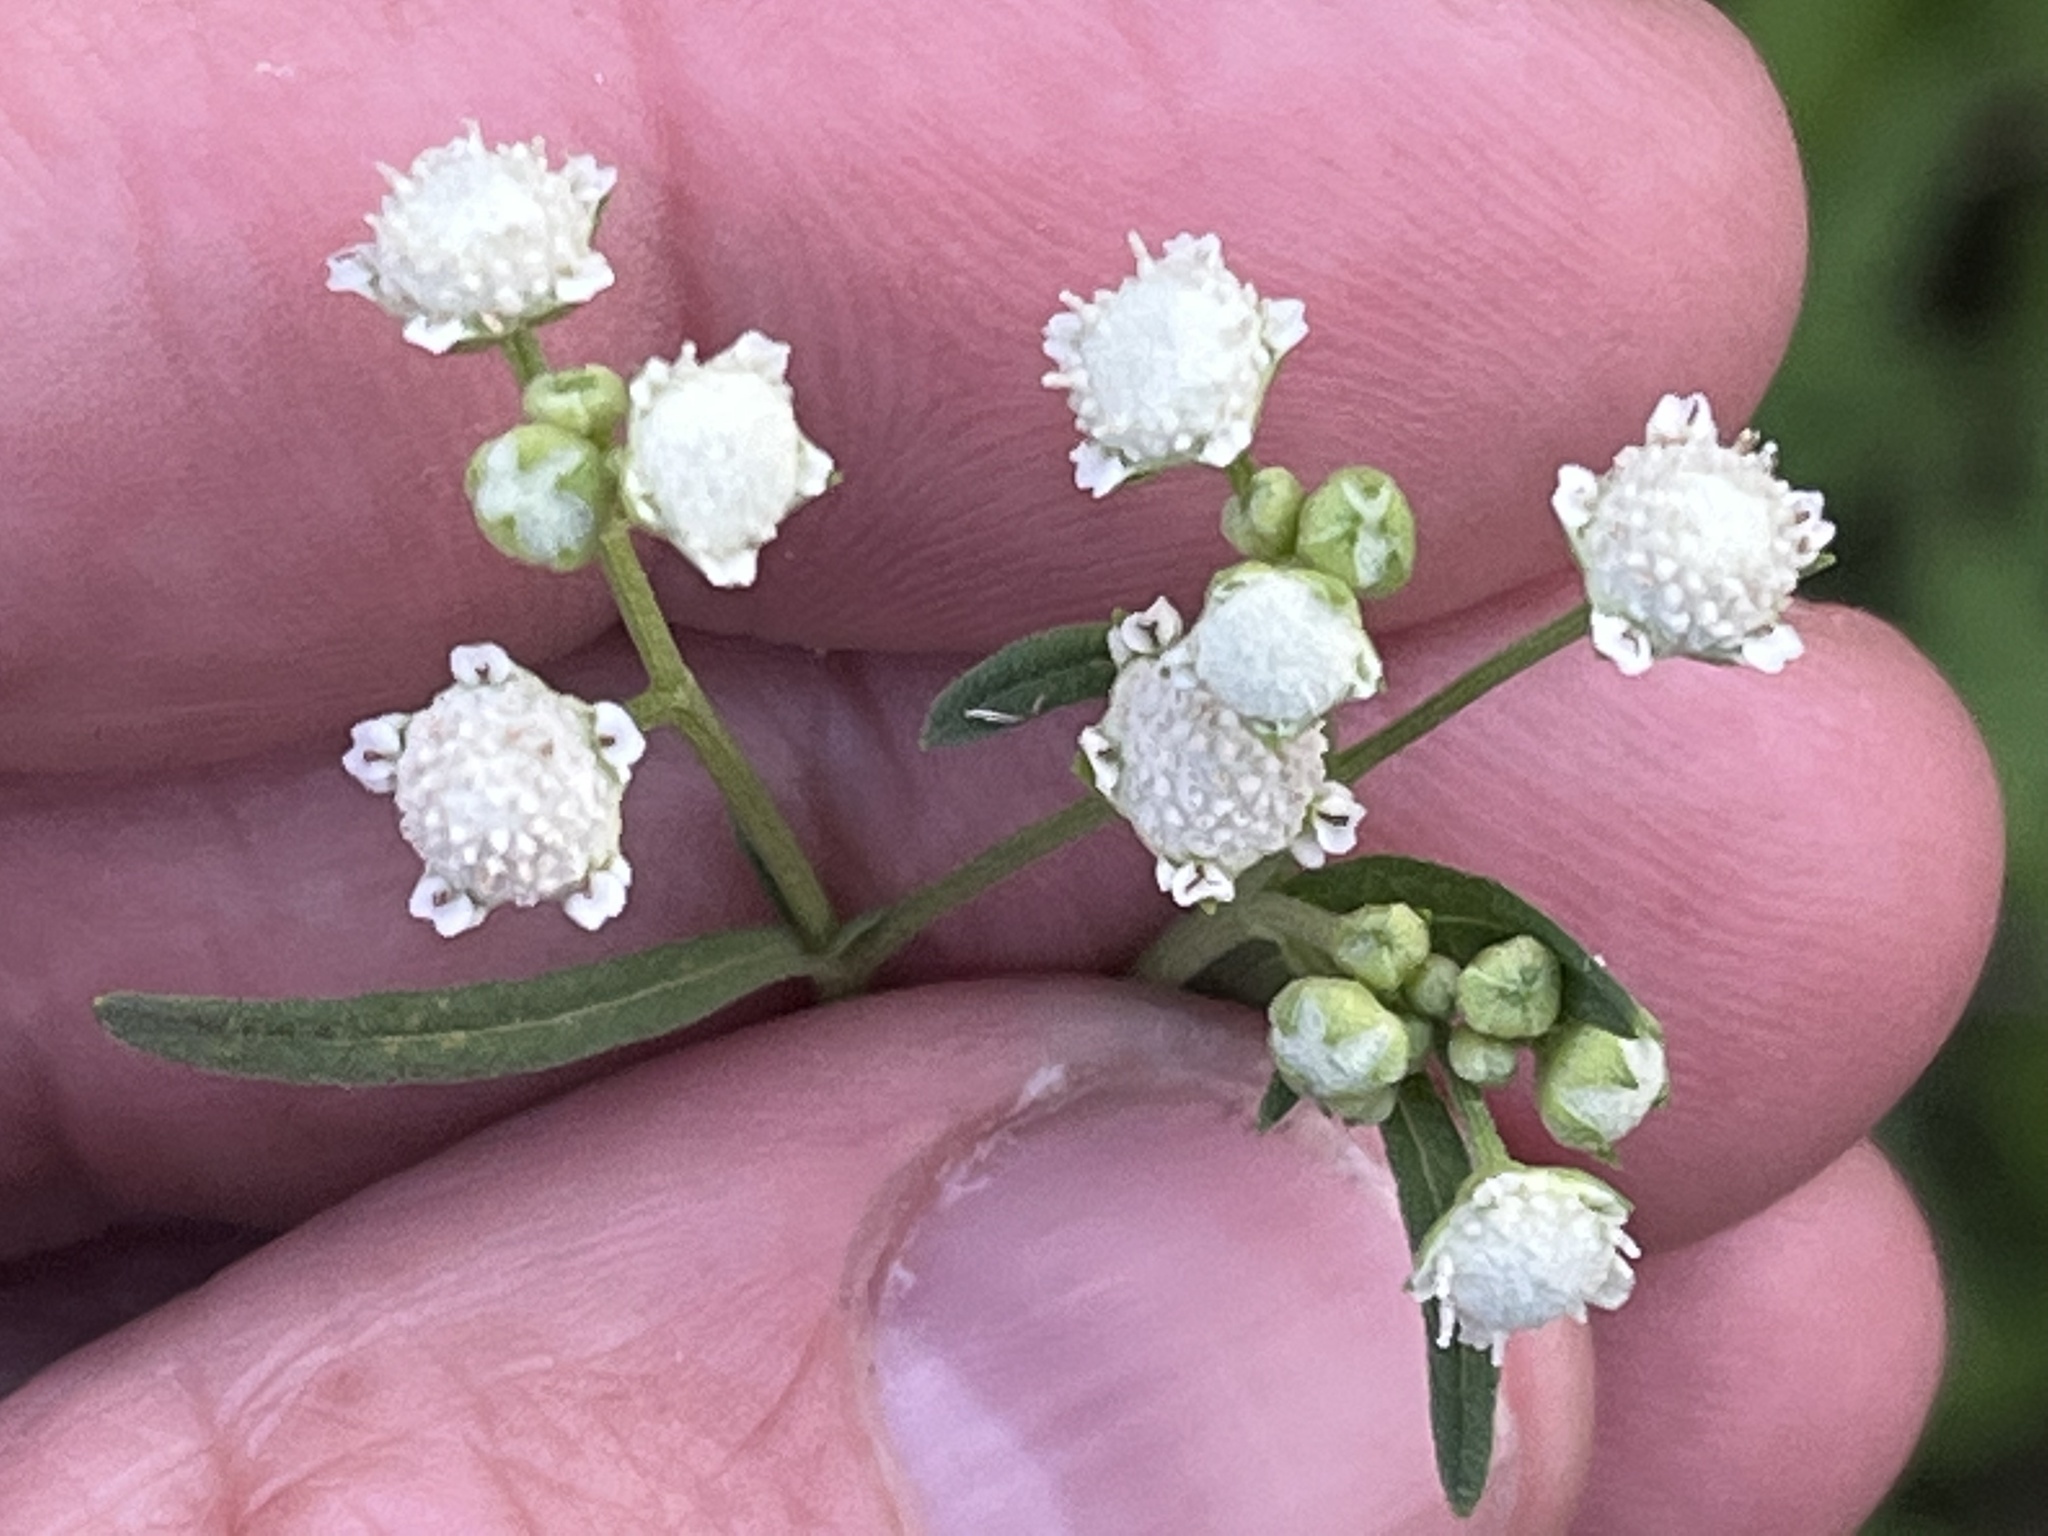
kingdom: Plantae
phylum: Tracheophyta
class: Magnoliopsida
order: Asterales
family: Asteraceae
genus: Parthenium
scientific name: Parthenium hysterophorus
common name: Santa maria feverfew
